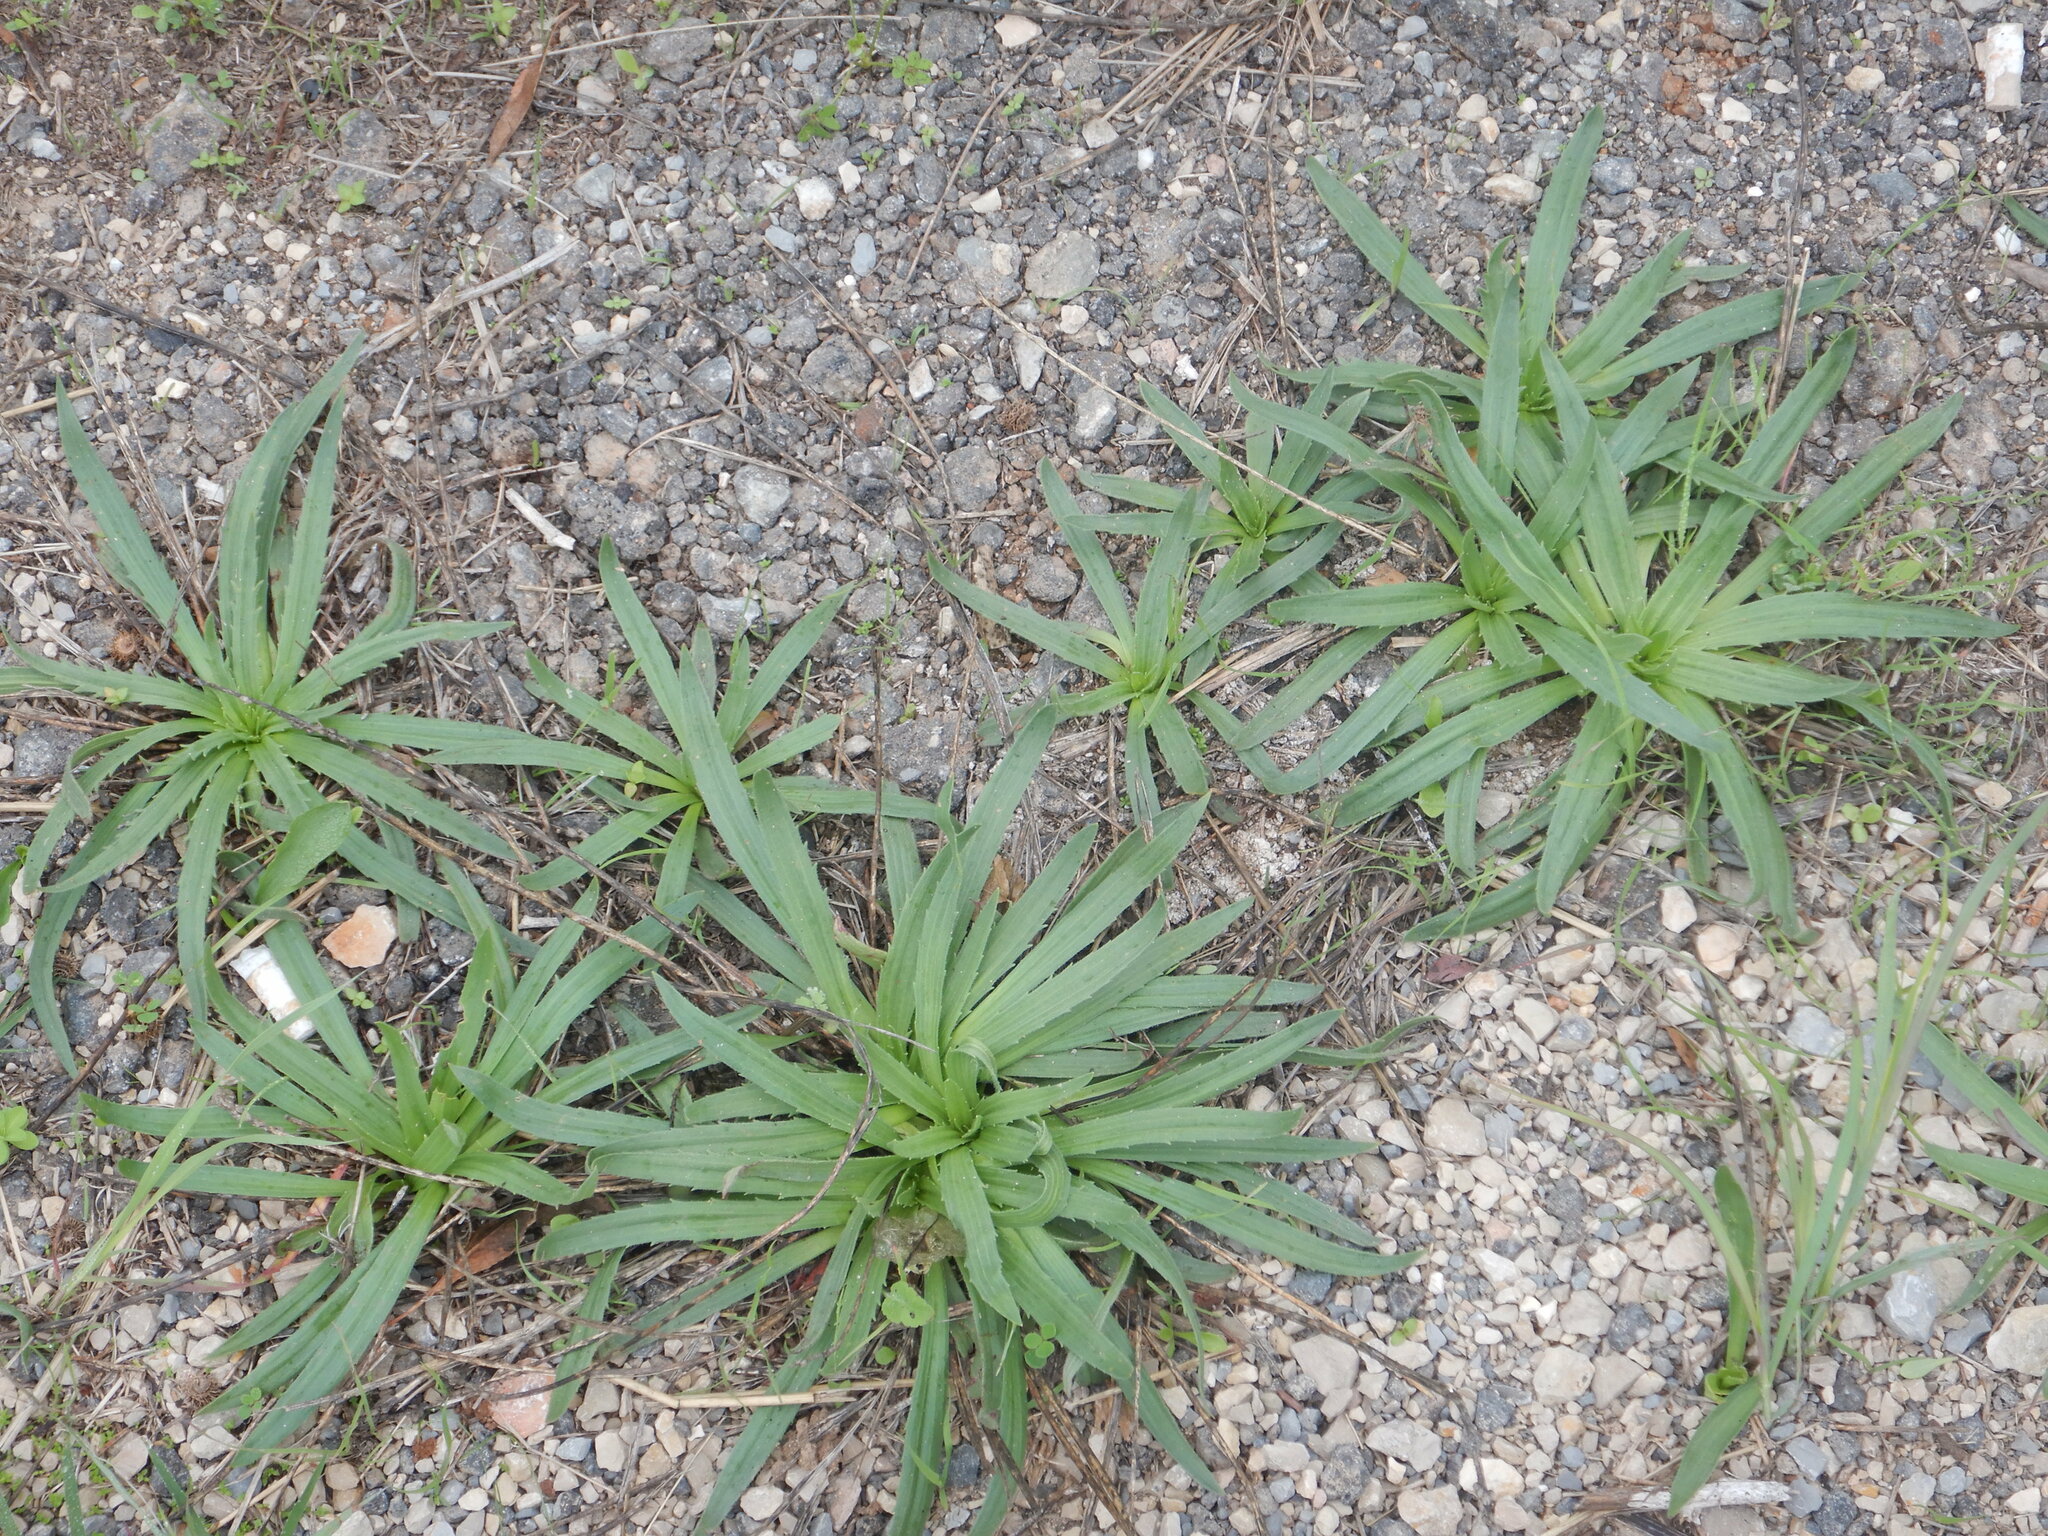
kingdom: Plantae
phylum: Tracheophyta
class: Magnoliopsida
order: Lamiales
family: Plantaginaceae
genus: Plantago
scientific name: Plantago serraria
